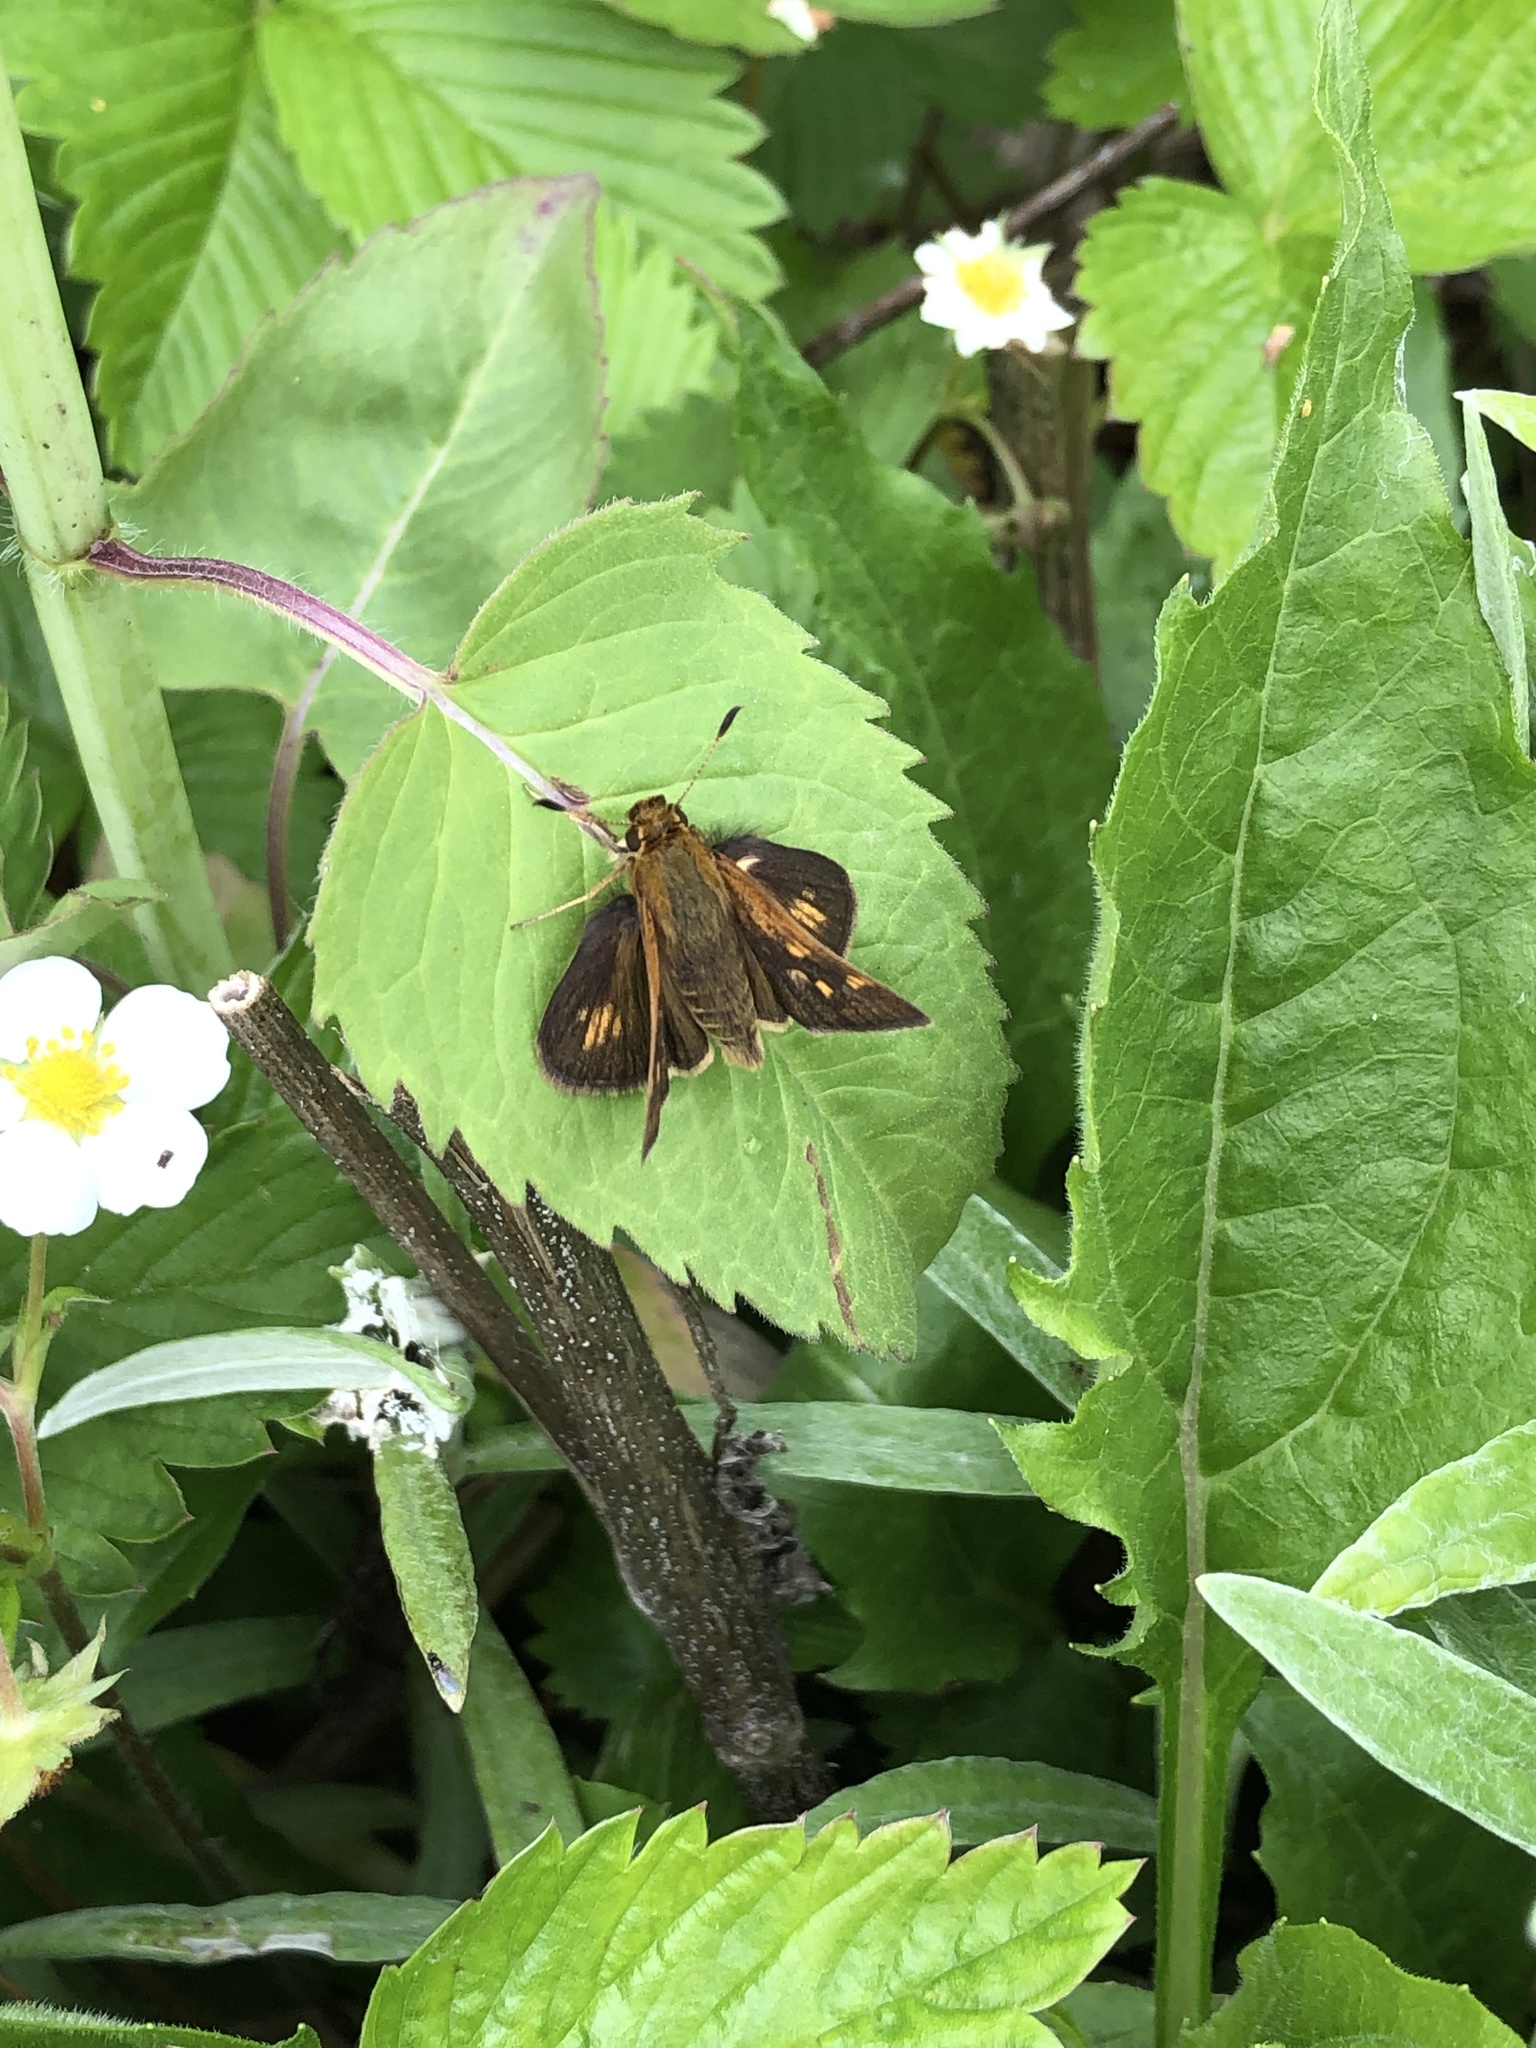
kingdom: Animalia
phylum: Arthropoda
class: Insecta
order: Lepidoptera
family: Hesperiidae
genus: Polites
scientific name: Polites coras
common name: Peck's skipper
